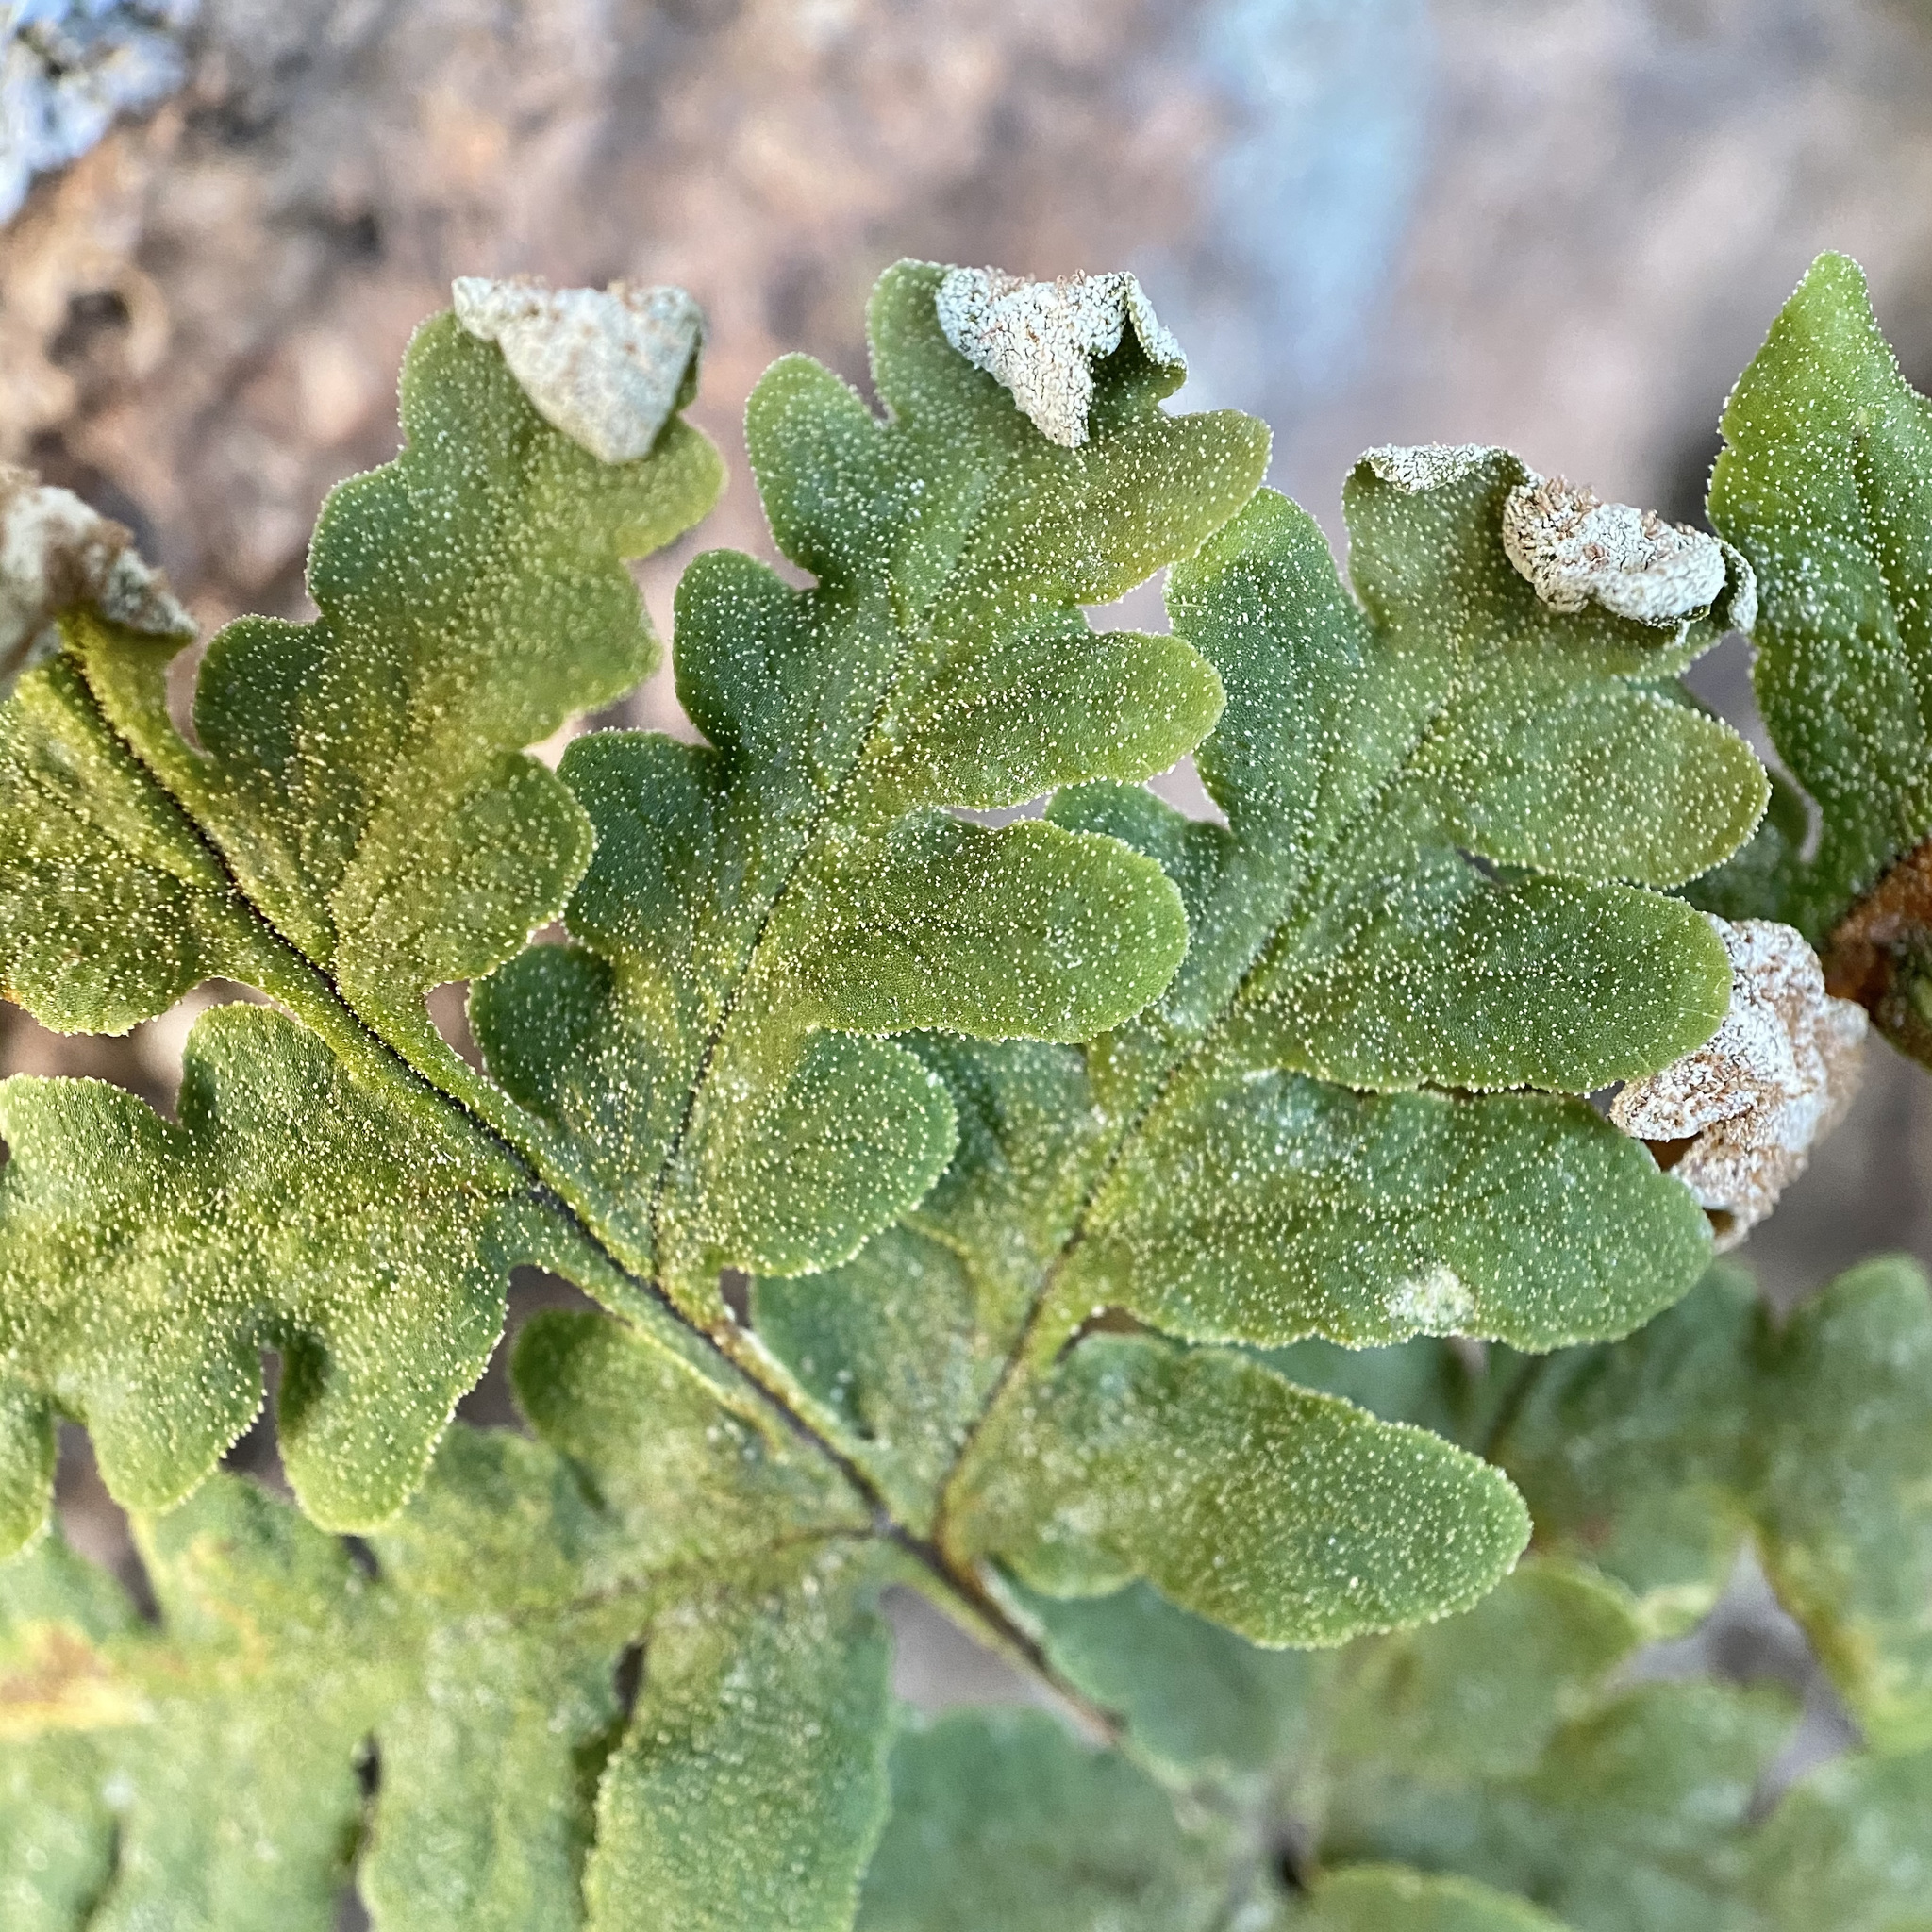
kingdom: Plantae
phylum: Tracheophyta
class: Polypodiopsida
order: Polypodiales
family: Pteridaceae
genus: Pentagramma
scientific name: Pentagramma maxonii
